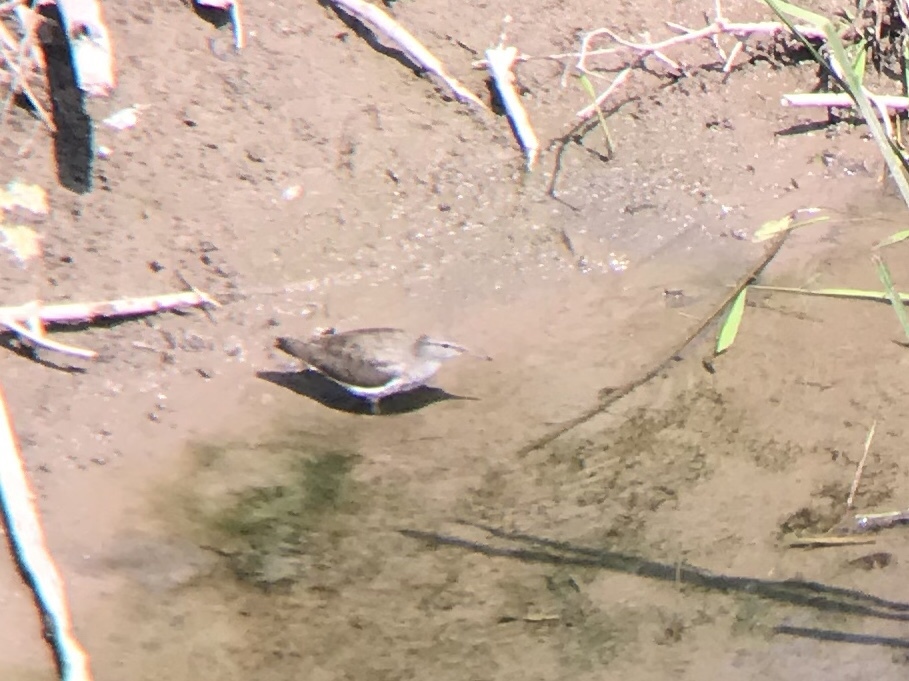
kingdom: Animalia
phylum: Chordata
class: Aves
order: Charadriiformes
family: Scolopacidae
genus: Actitis
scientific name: Actitis macularius
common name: Spotted sandpiper
